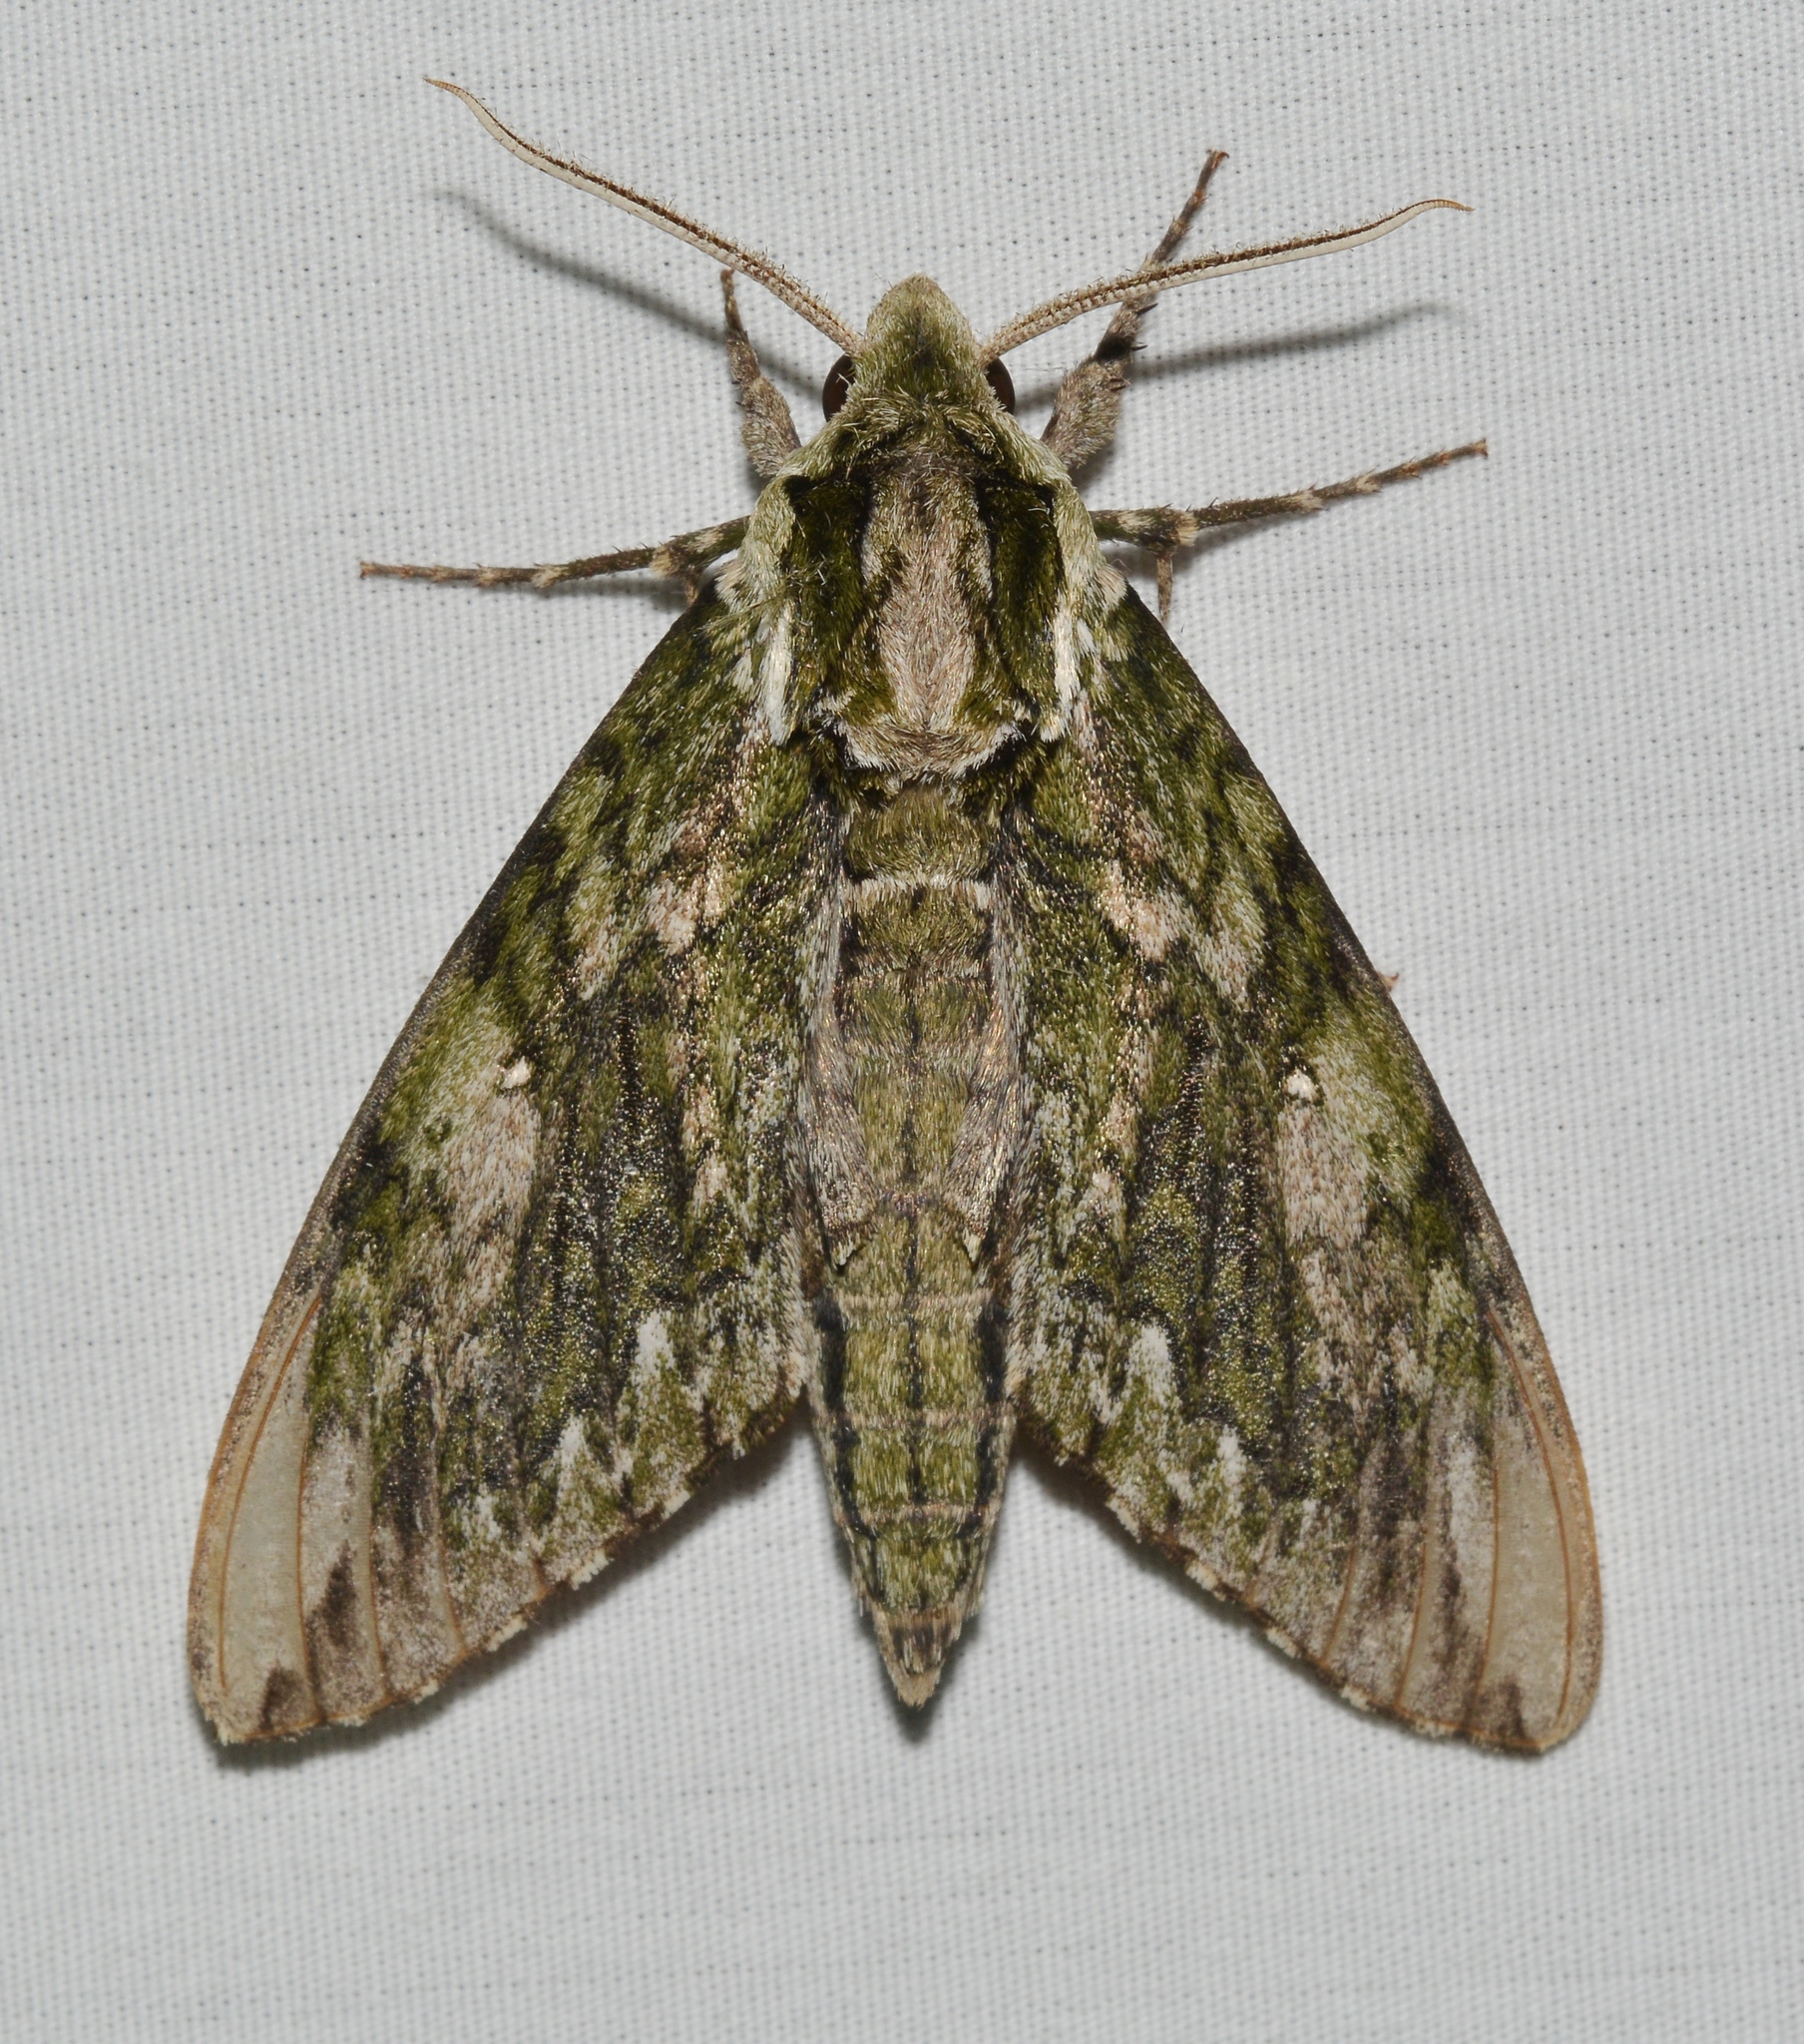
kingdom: Animalia
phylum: Arthropoda
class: Insecta
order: Lepidoptera
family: Sphingidae
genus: Ceratomia
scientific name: Ceratomia hageni
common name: Hagen's sphinx
